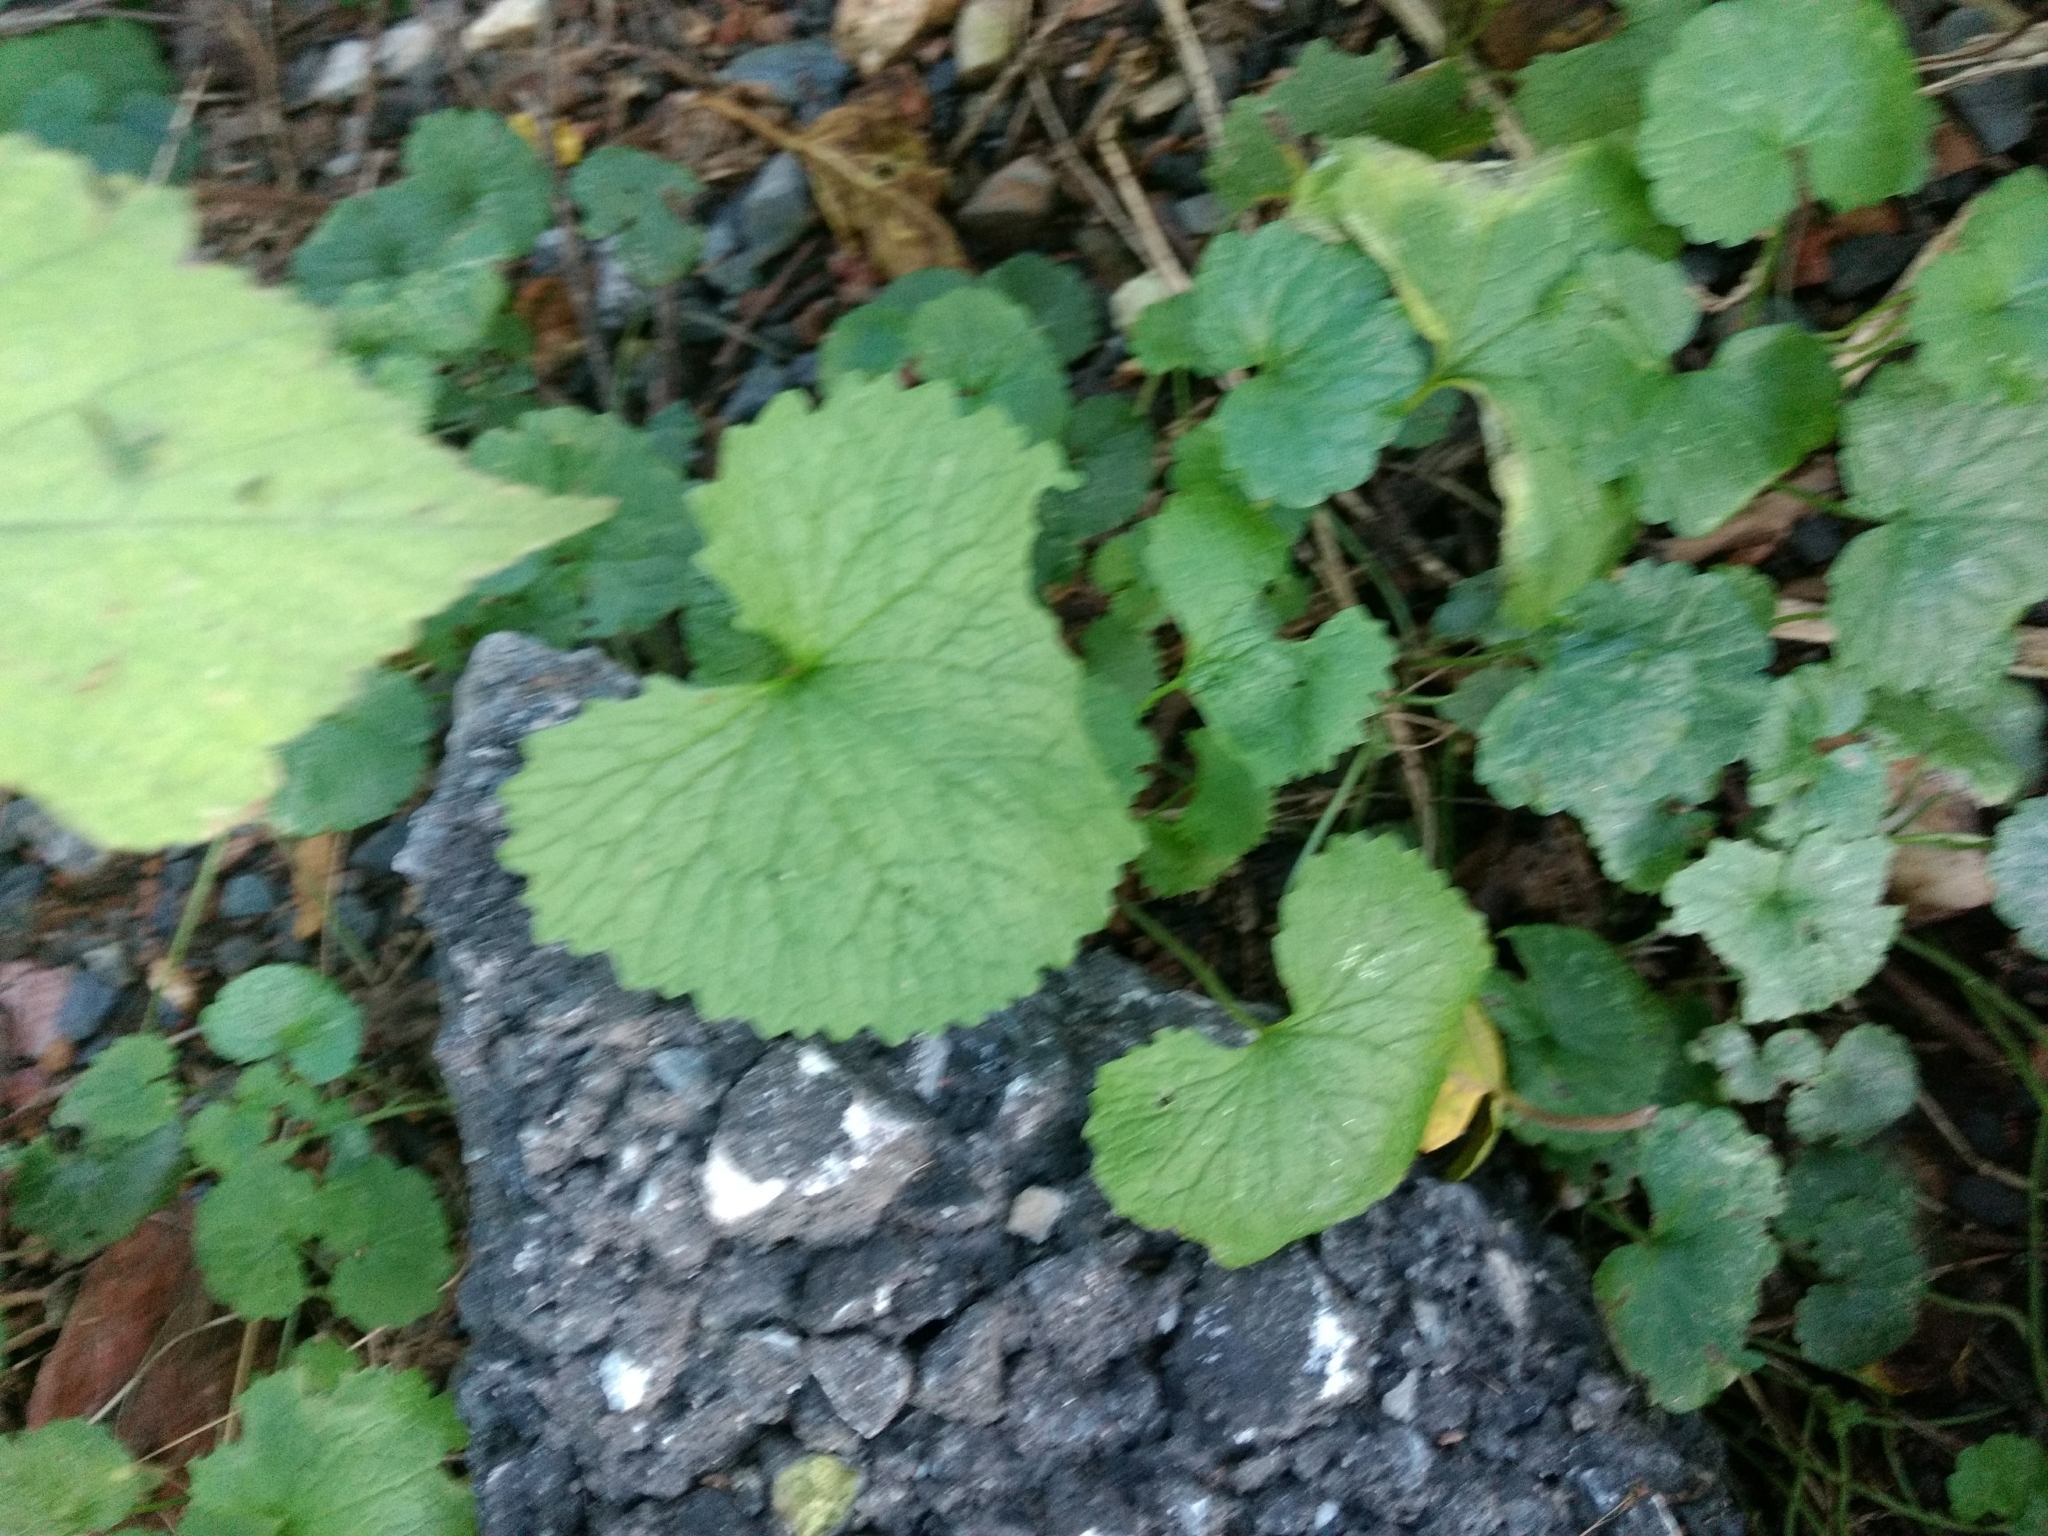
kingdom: Plantae
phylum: Tracheophyta
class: Magnoliopsida
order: Brassicales
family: Brassicaceae
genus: Alliaria
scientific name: Alliaria petiolata
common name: Garlic mustard
